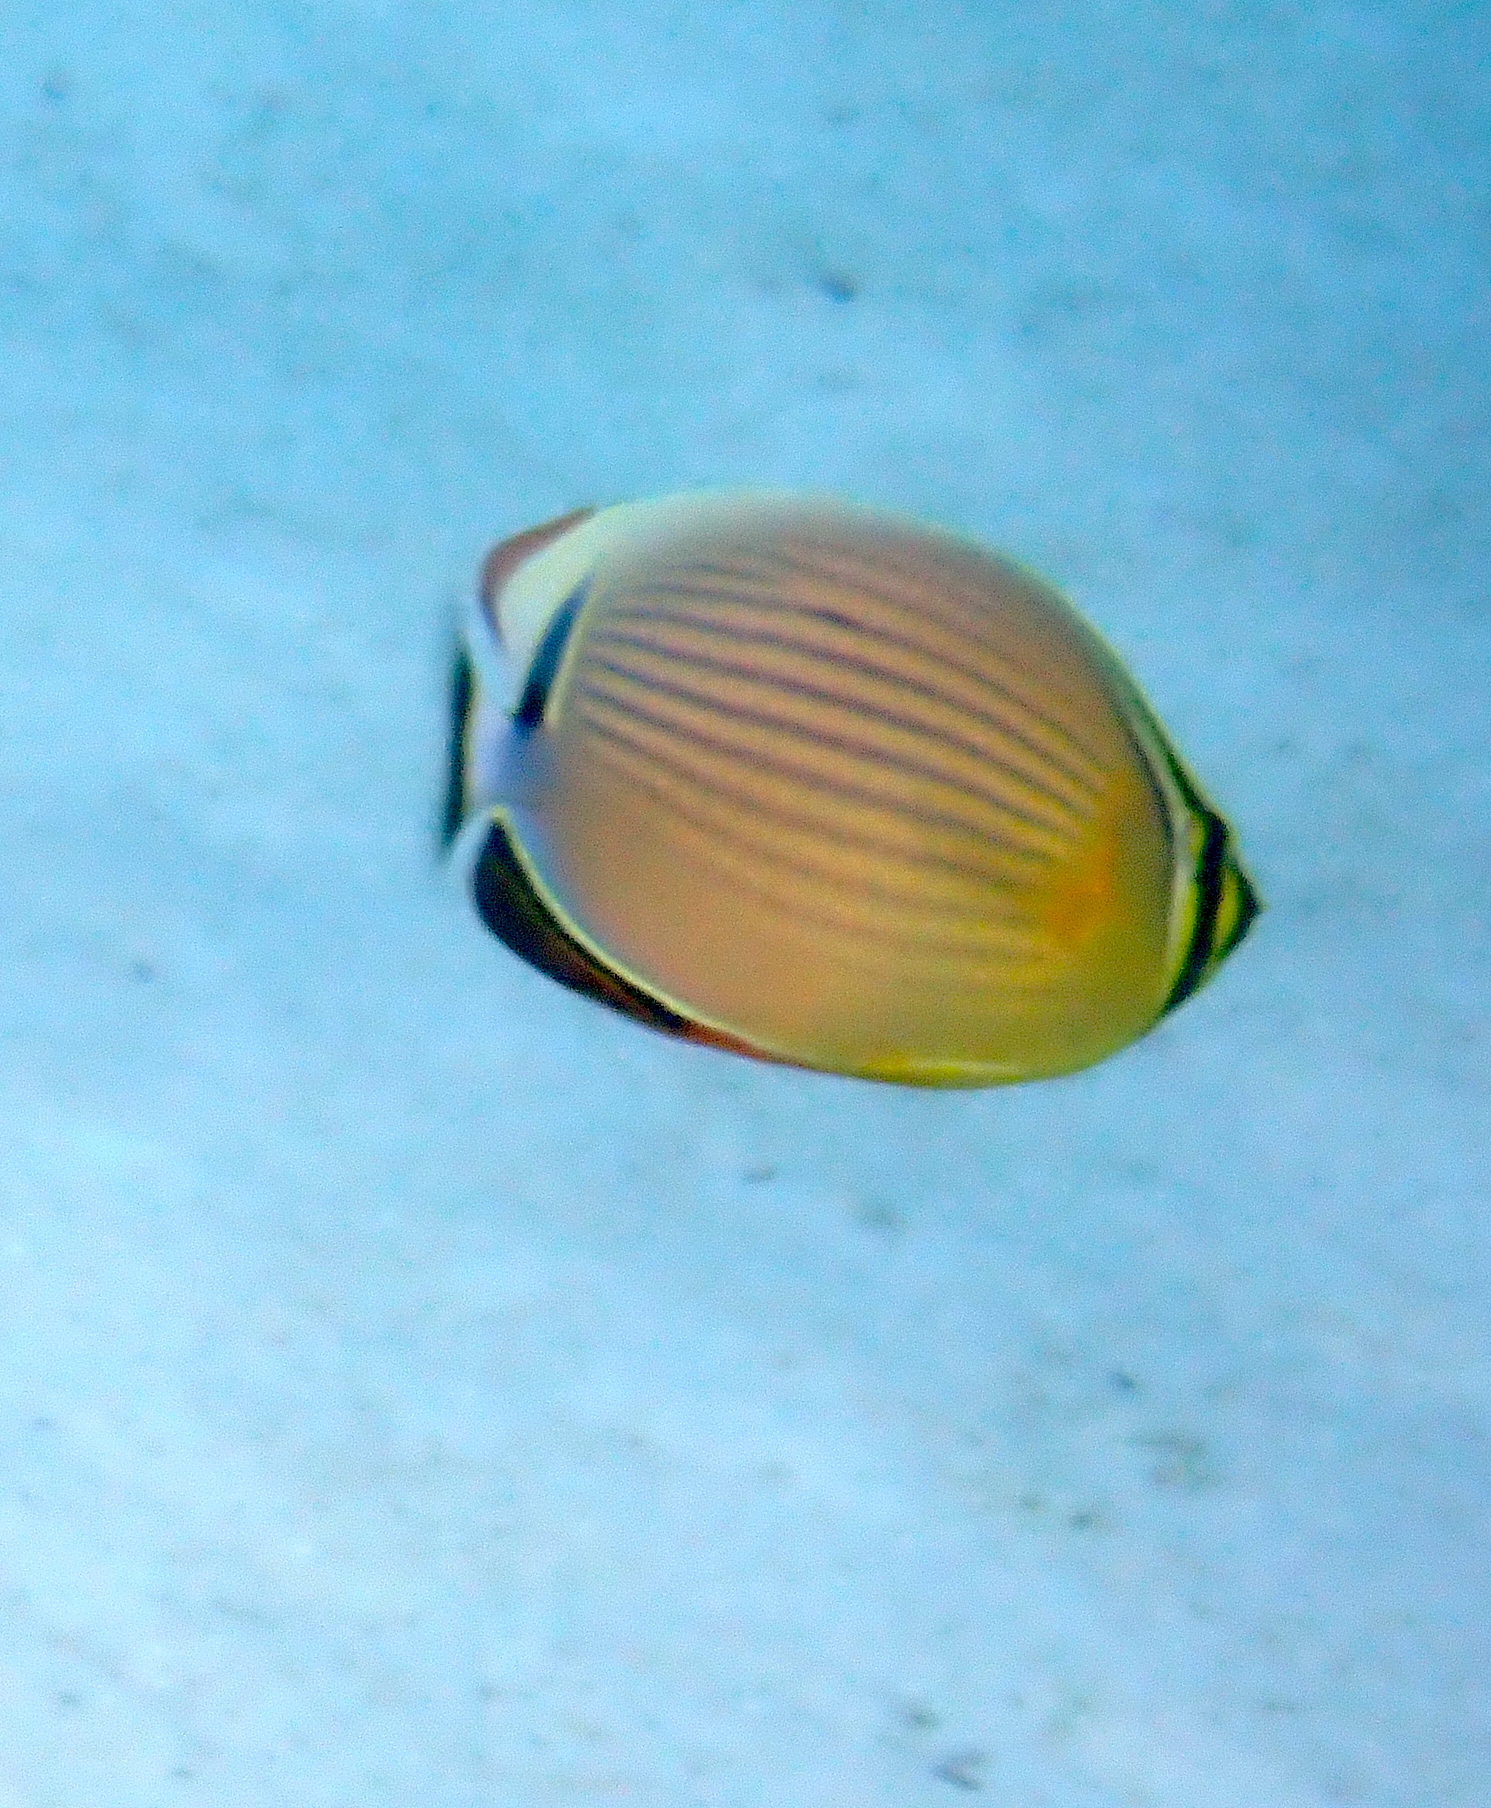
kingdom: Animalia
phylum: Chordata
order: Perciformes
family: Chaetodontidae
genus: Chaetodon
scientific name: Chaetodon lunulatus
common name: Redfin butterflyfish
